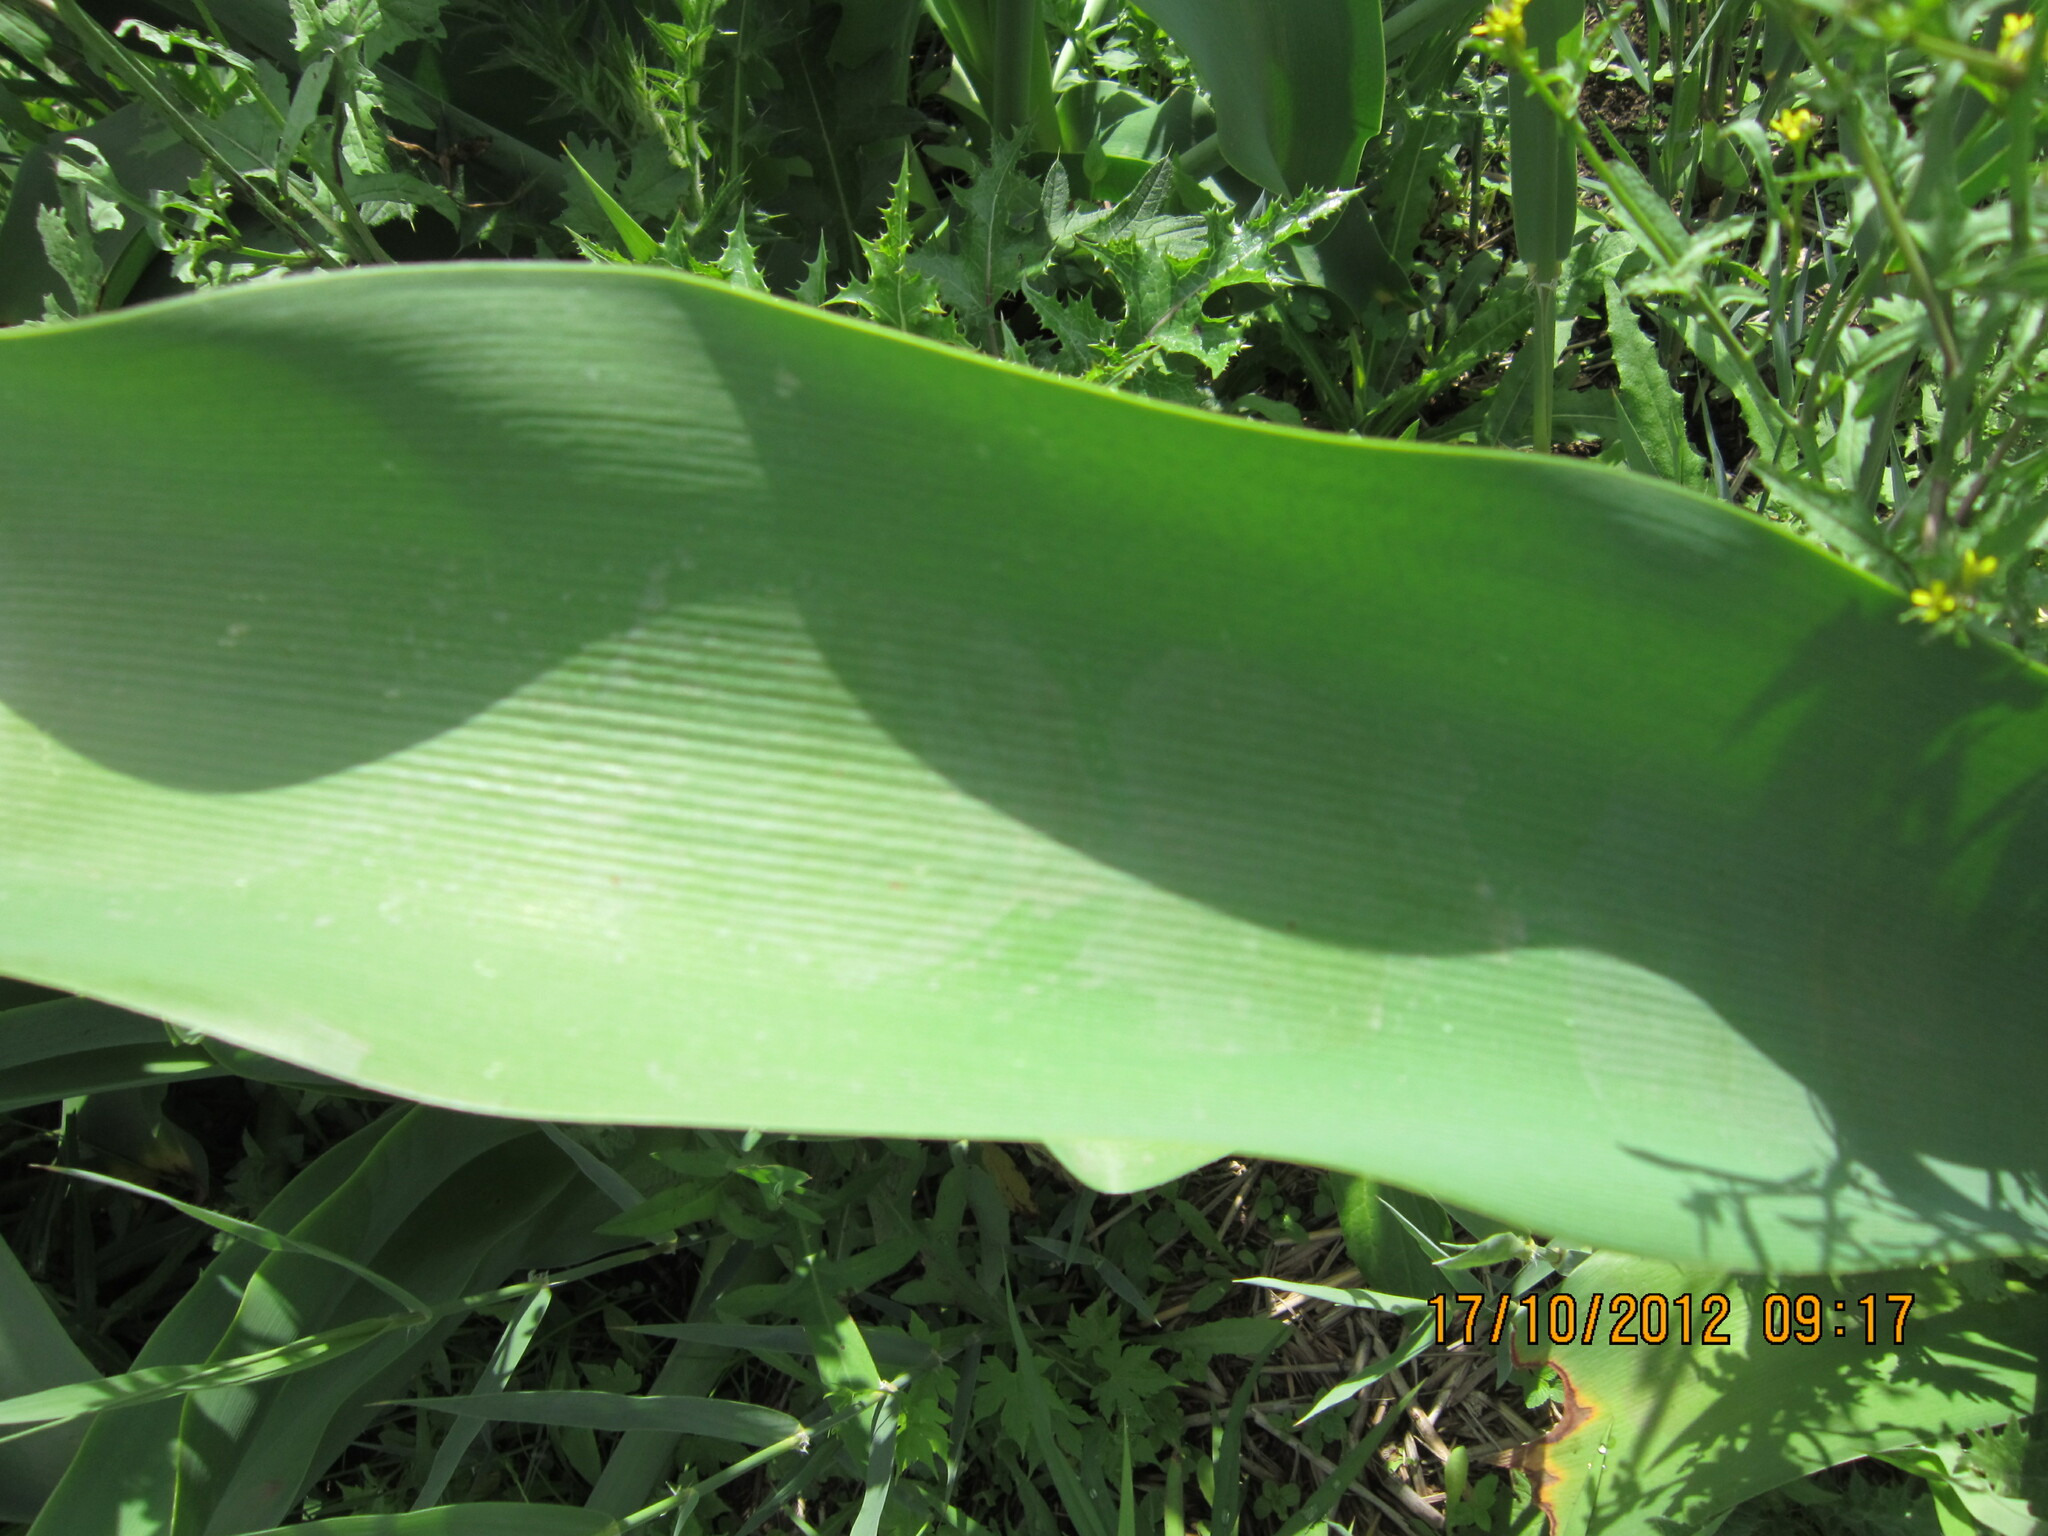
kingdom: Plantae
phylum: Tracheophyta
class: Liliopsida
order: Asparagales
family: Amaryllidaceae
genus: Crinum
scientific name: Crinum bulbispermum
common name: Hardy swamplily
